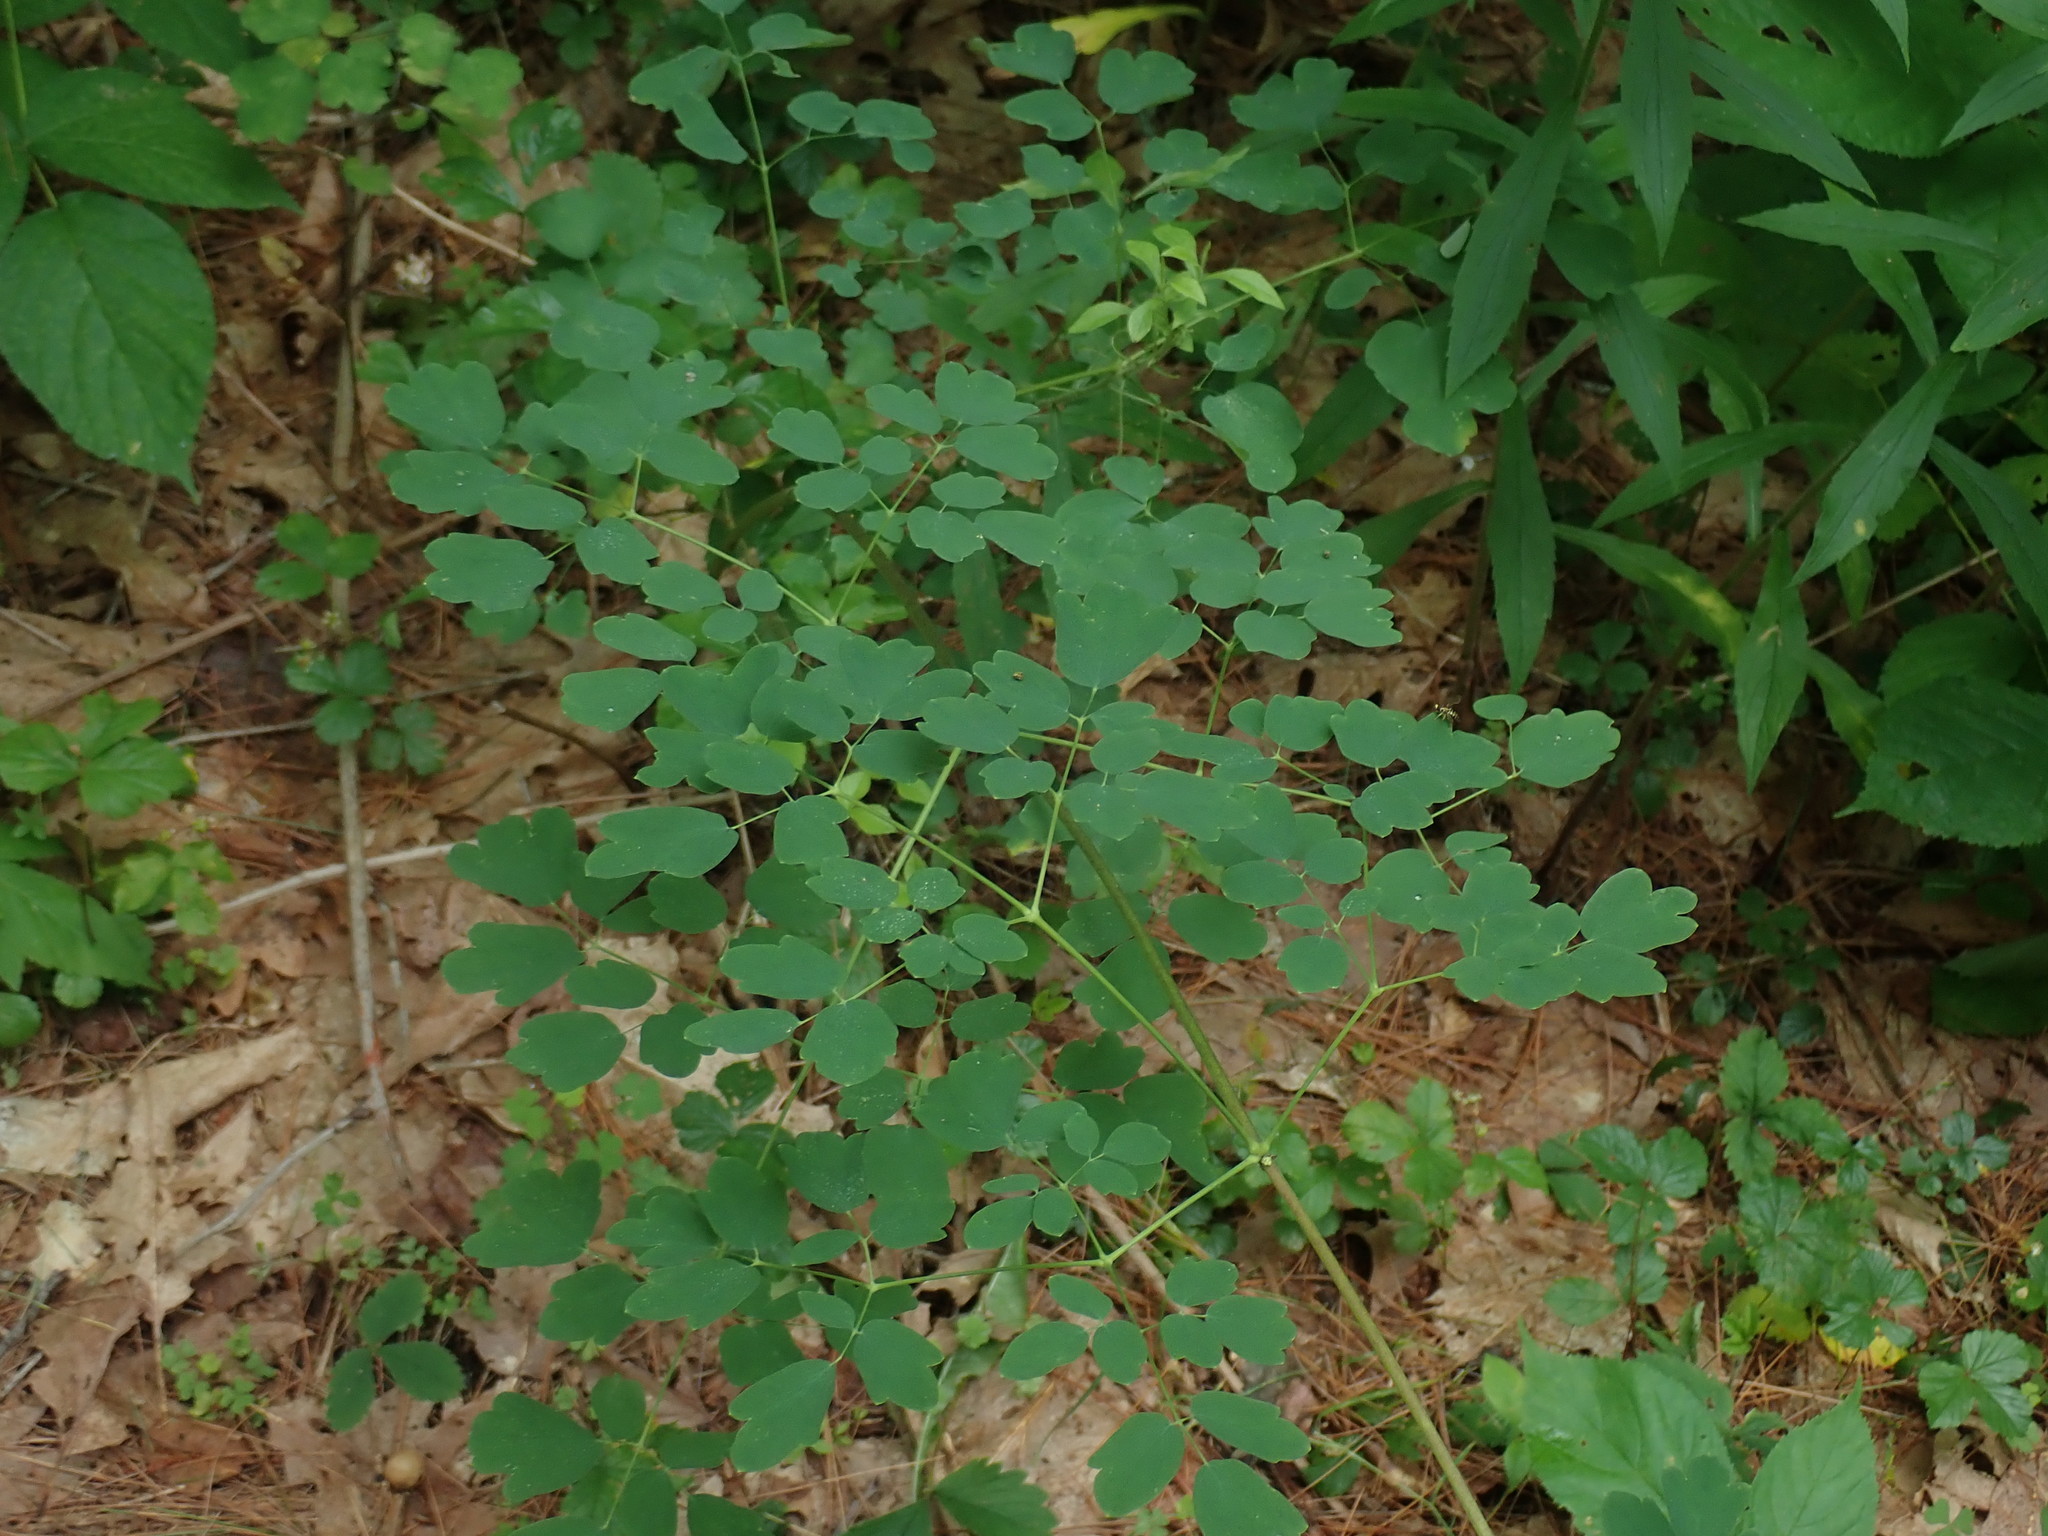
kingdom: Plantae
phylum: Tracheophyta
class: Magnoliopsida
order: Ranunculales
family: Ranunculaceae
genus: Thalictrum
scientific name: Thalictrum pubescens
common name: King-of-the-meadow
